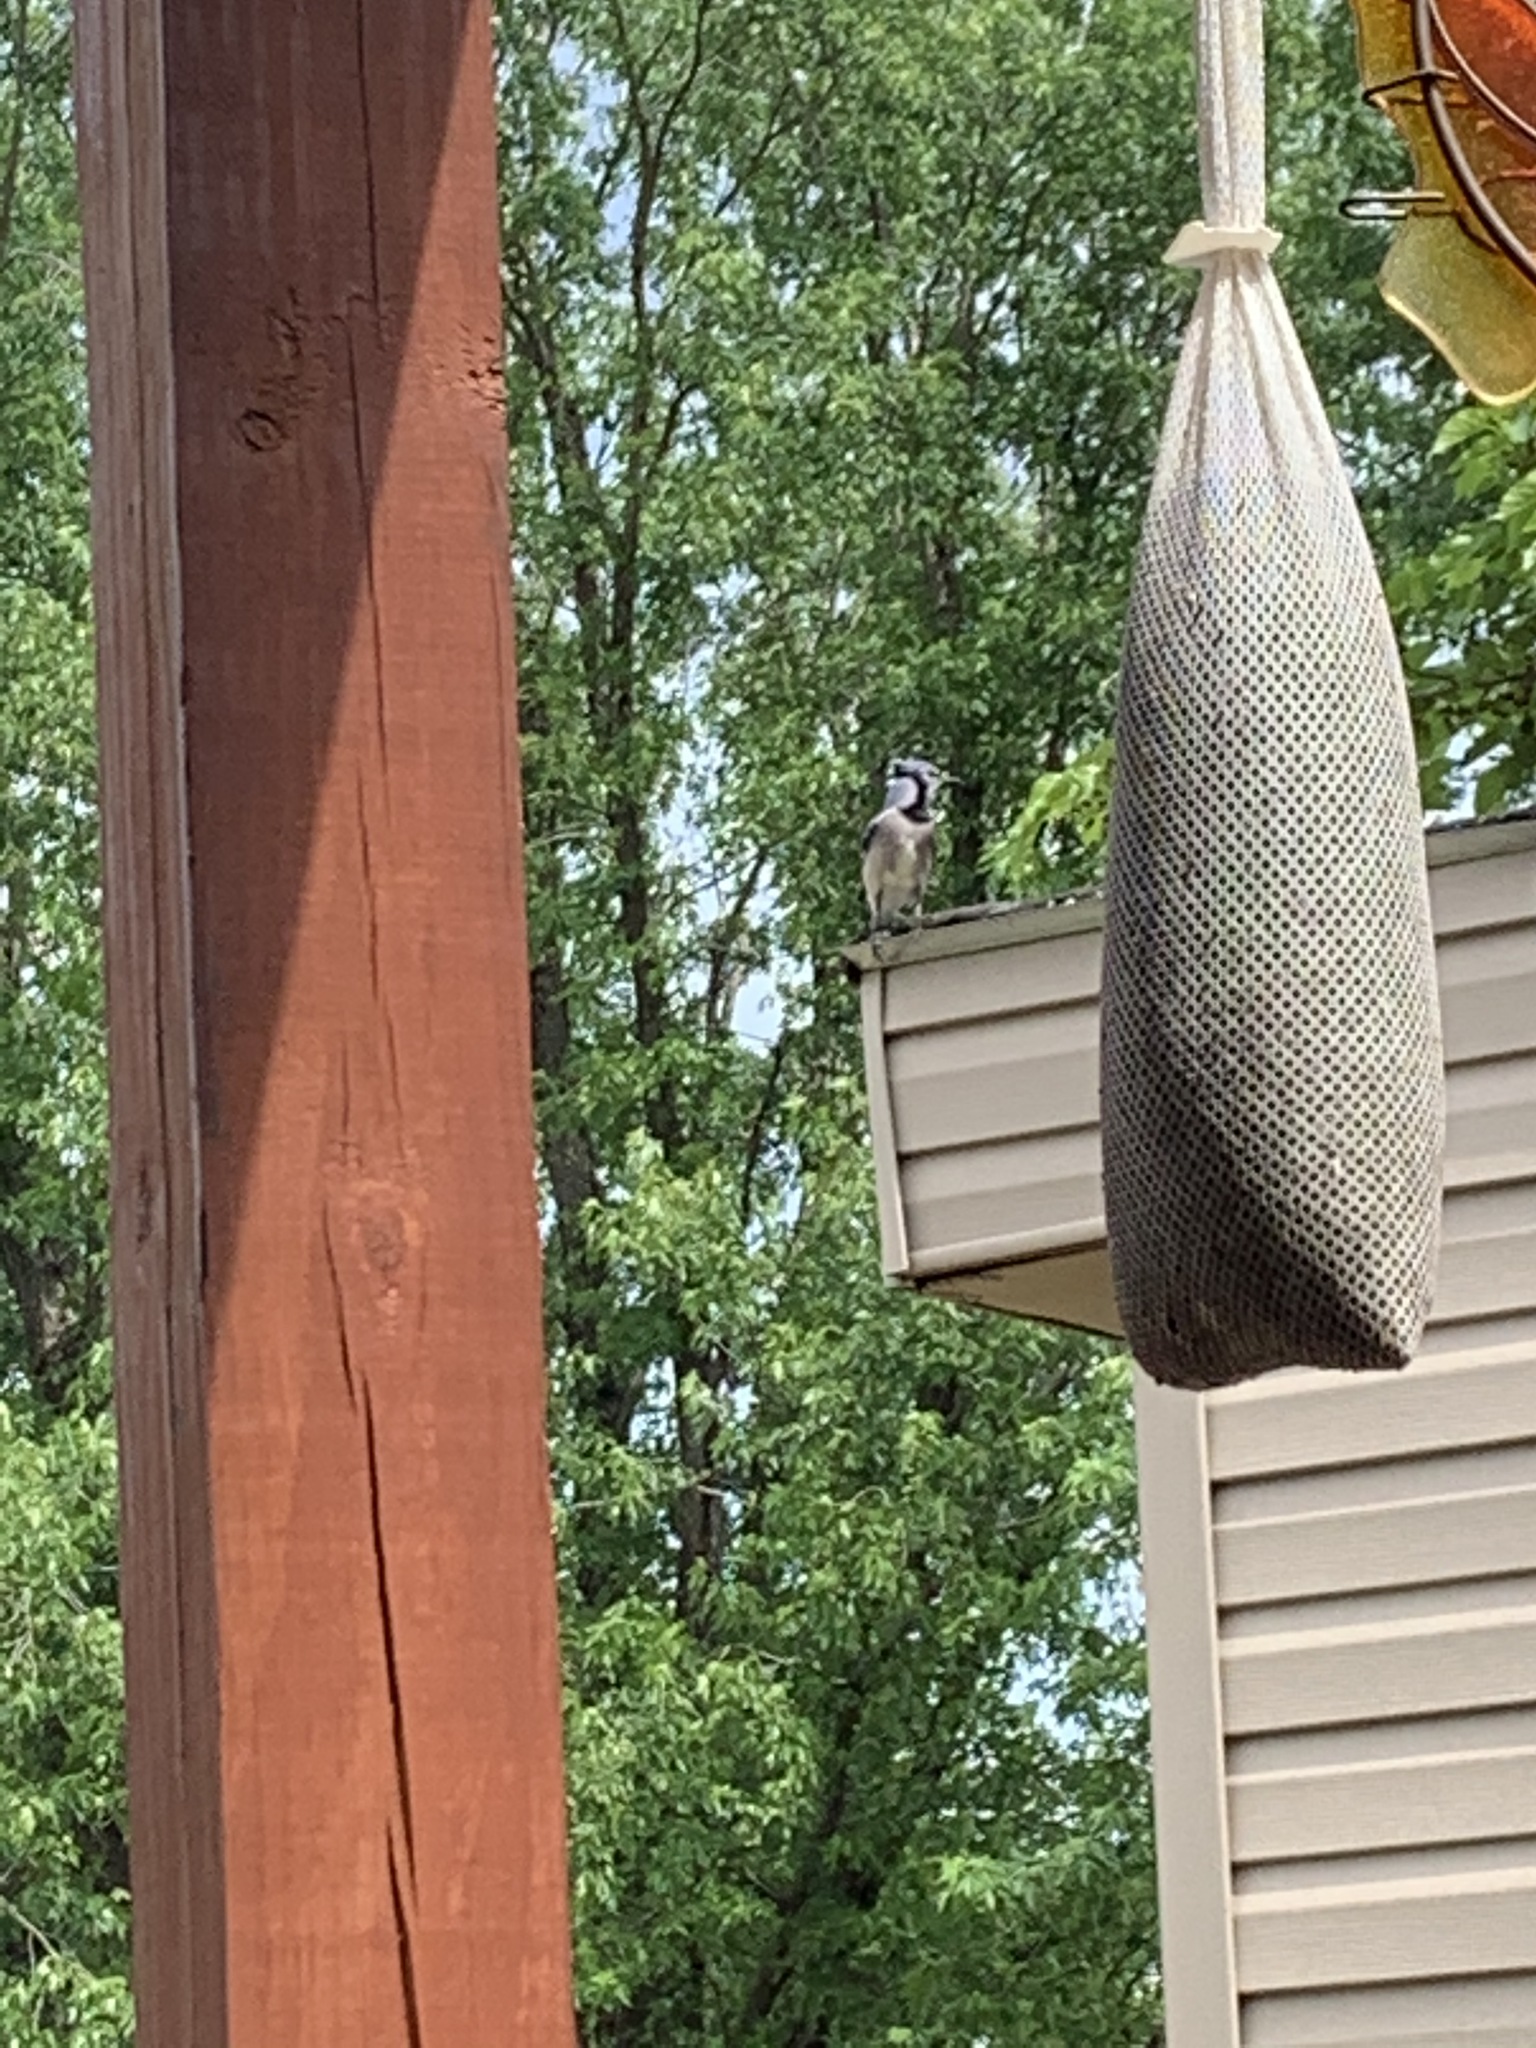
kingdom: Animalia
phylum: Chordata
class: Aves
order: Passeriformes
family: Corvidae
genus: Cyanocitta
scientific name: Cyanocitta cristata
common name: Blue jay
